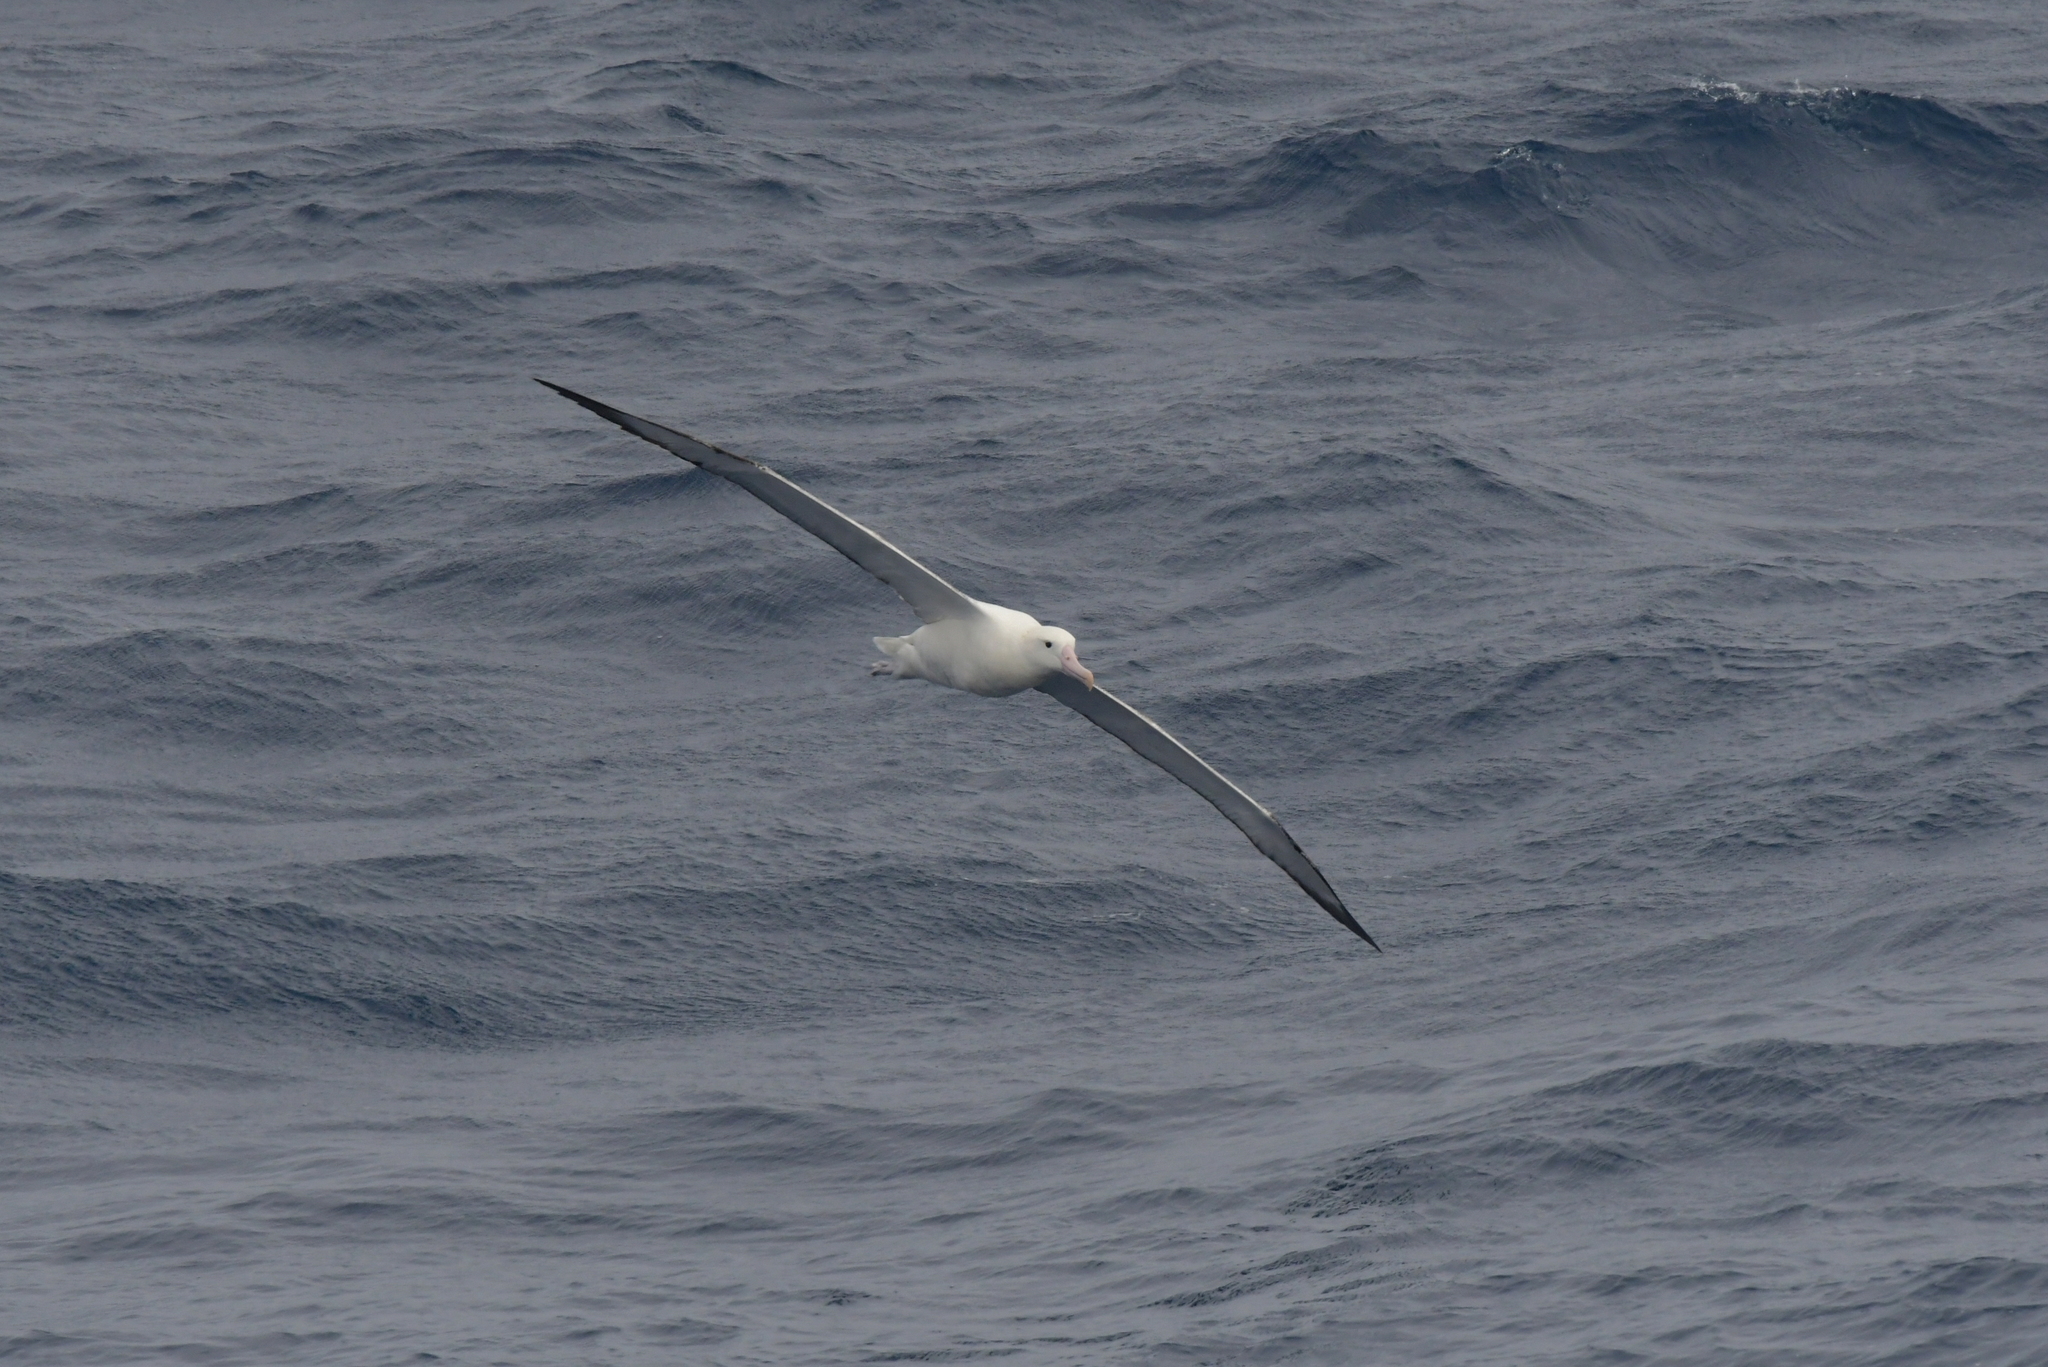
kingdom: Animalia
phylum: Chordata
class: Aves
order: Procellariiformes
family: Diomedeidae
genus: Diomedea
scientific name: Diomedea epomophora
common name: Southern royal albatross
